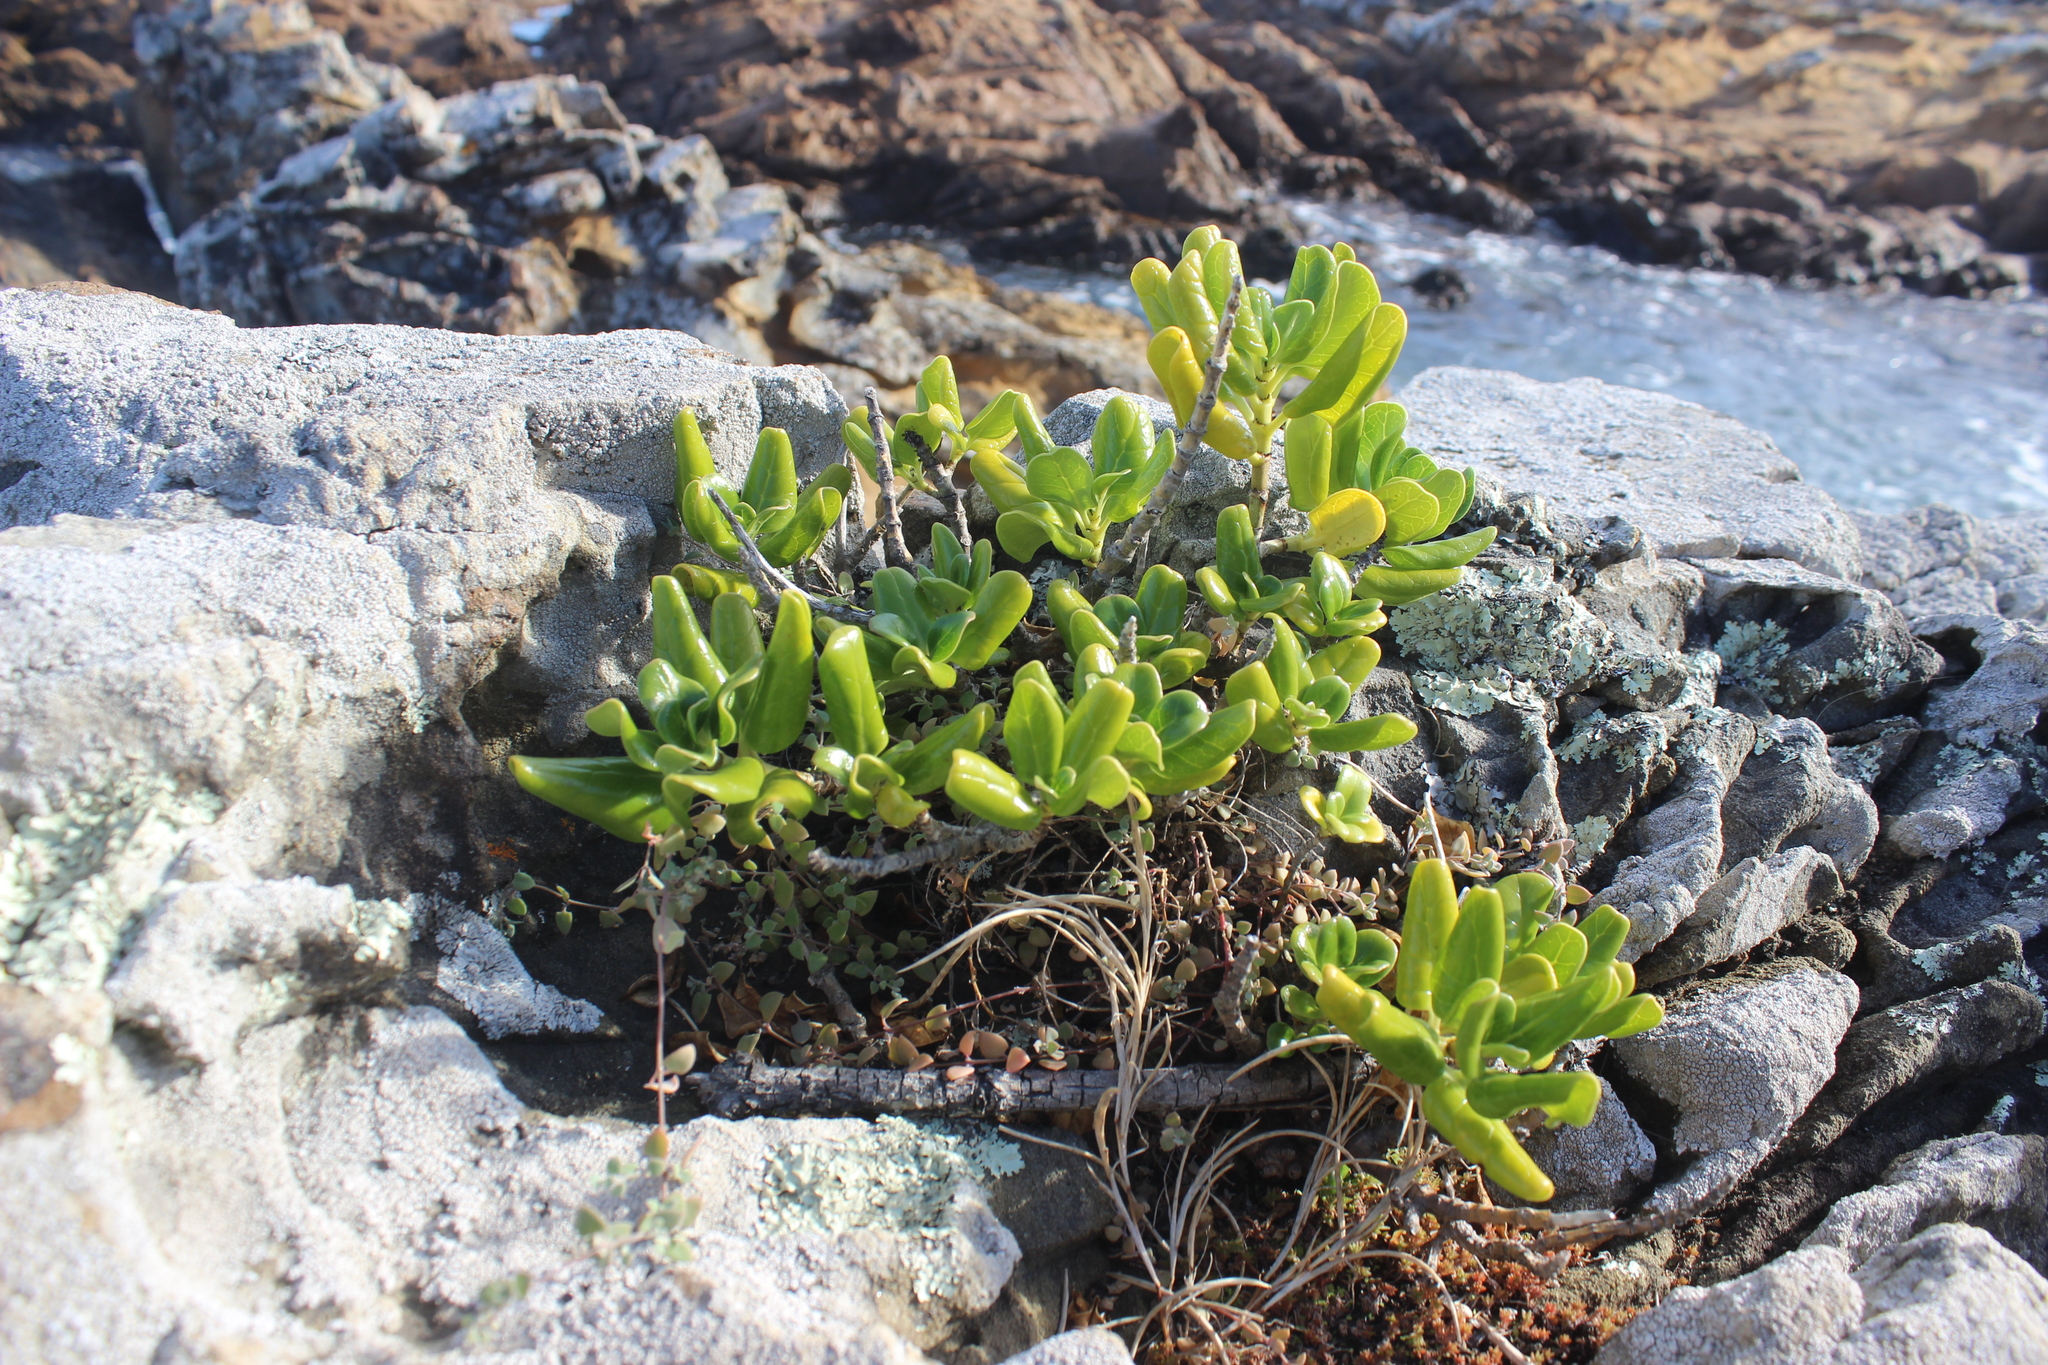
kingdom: Plantae
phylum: Tracheophyta
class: Magnoliopsida
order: Gentianales
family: Rubiaceae
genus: Coprosma
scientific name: Coprosma repens
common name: Tree bedstraw
